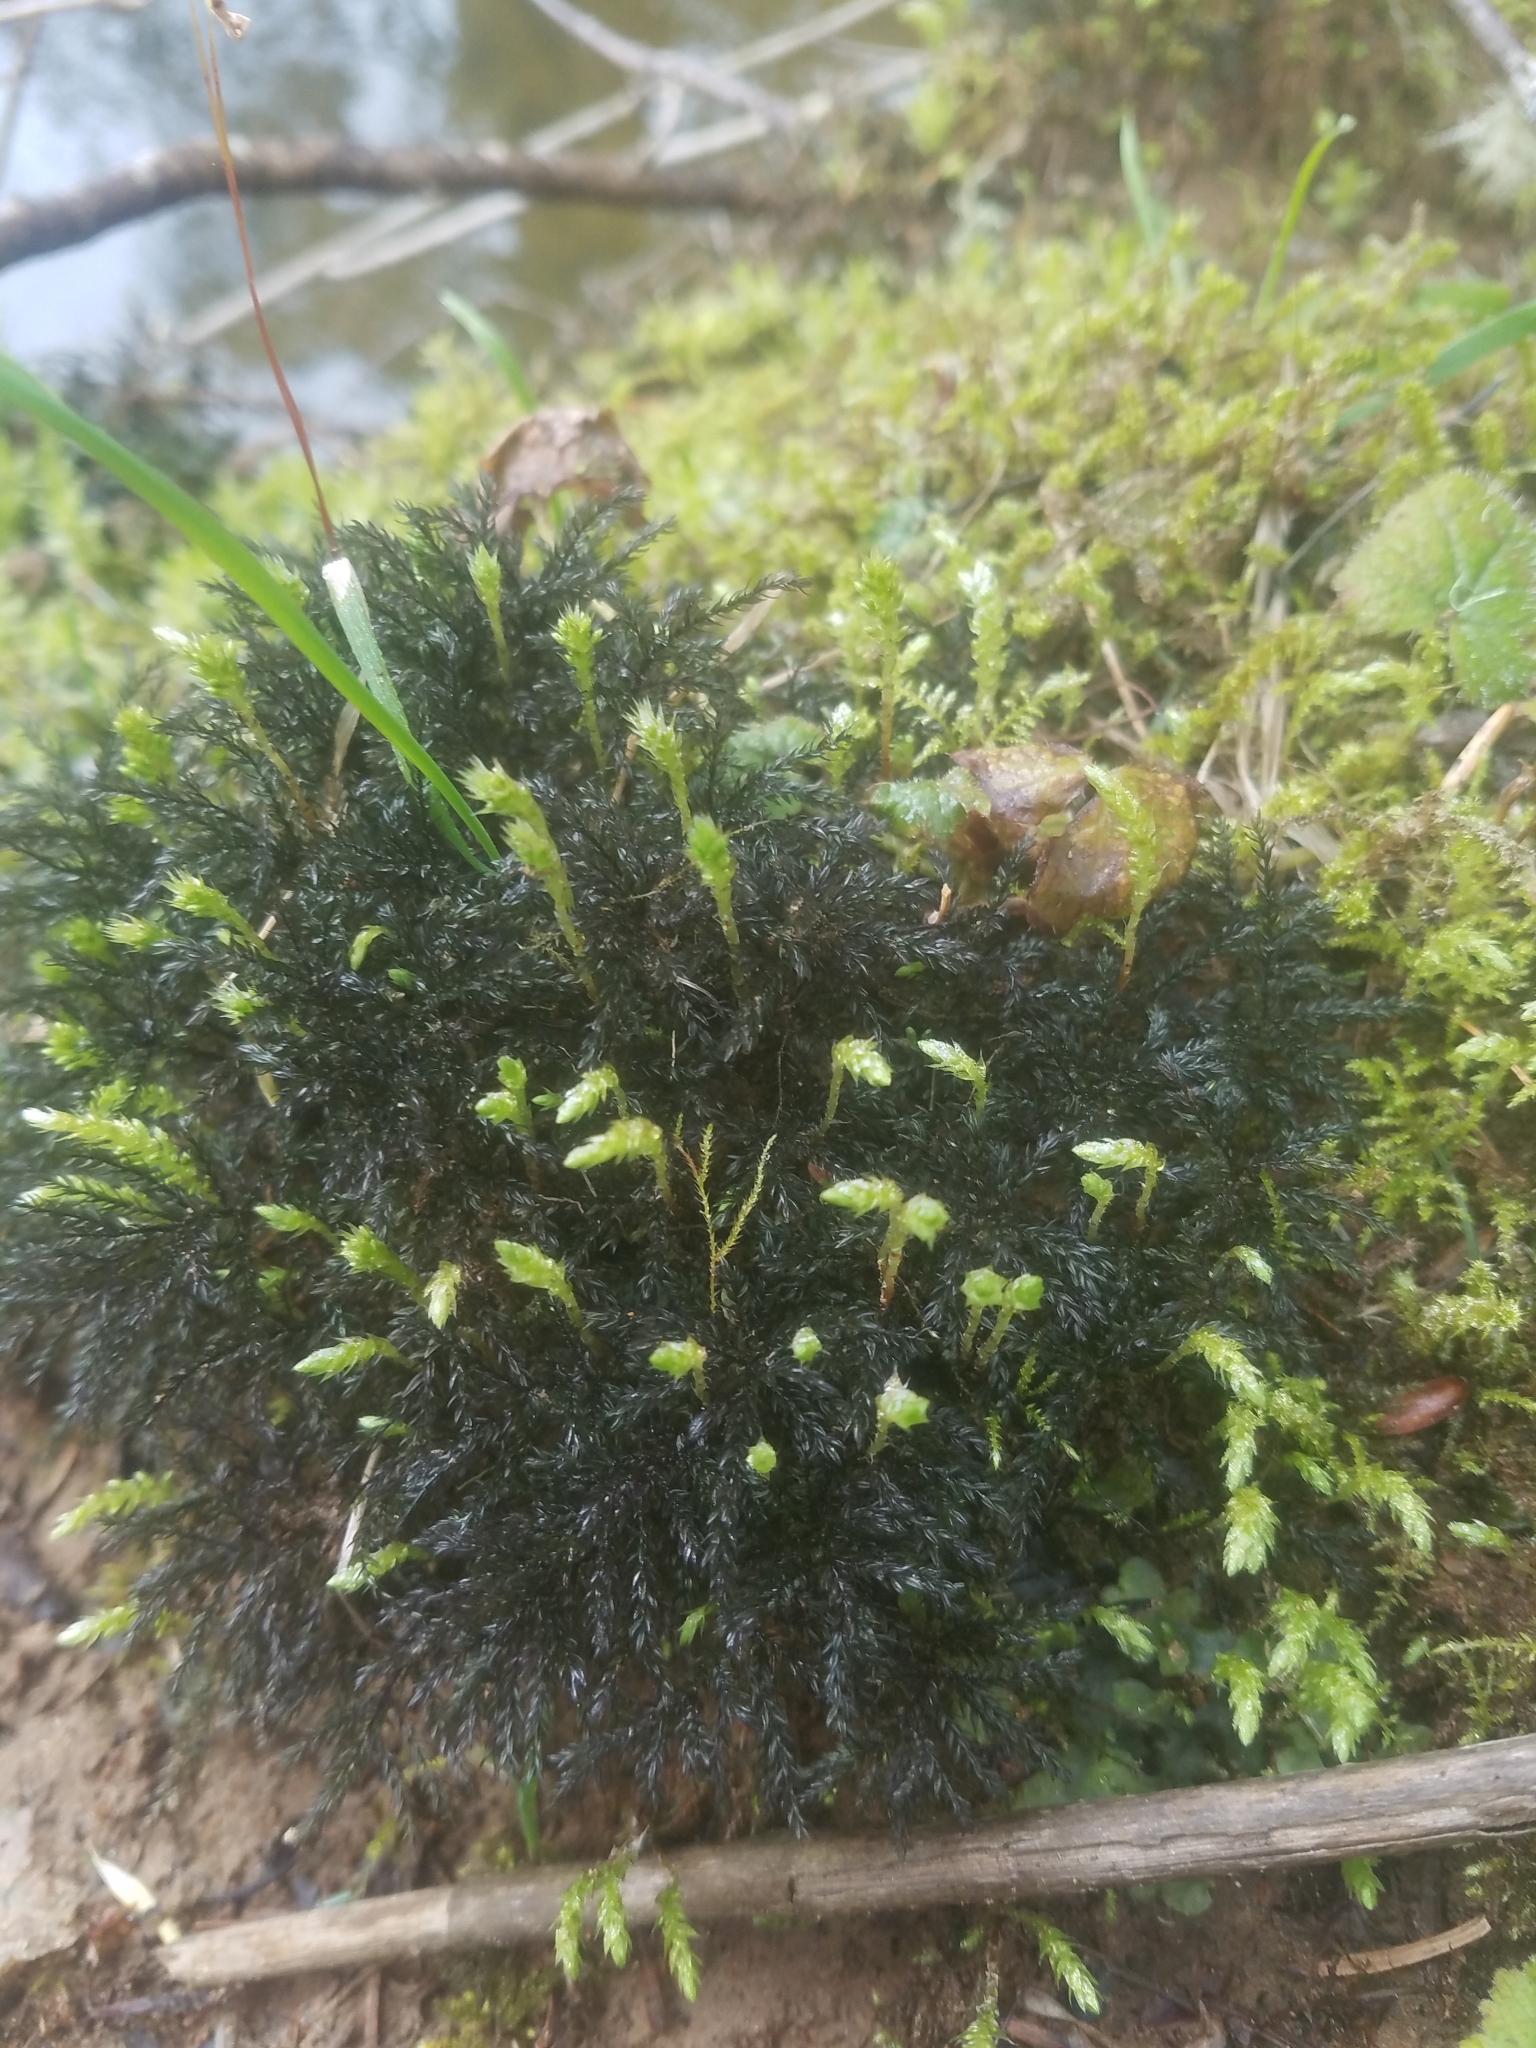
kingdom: Plantae
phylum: Bryophyta
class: Bryopsida
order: Bryales
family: Mniaceae
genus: Leucolepis
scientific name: Leucolepis acanthoneura
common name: Leucolepis umbrella moss
